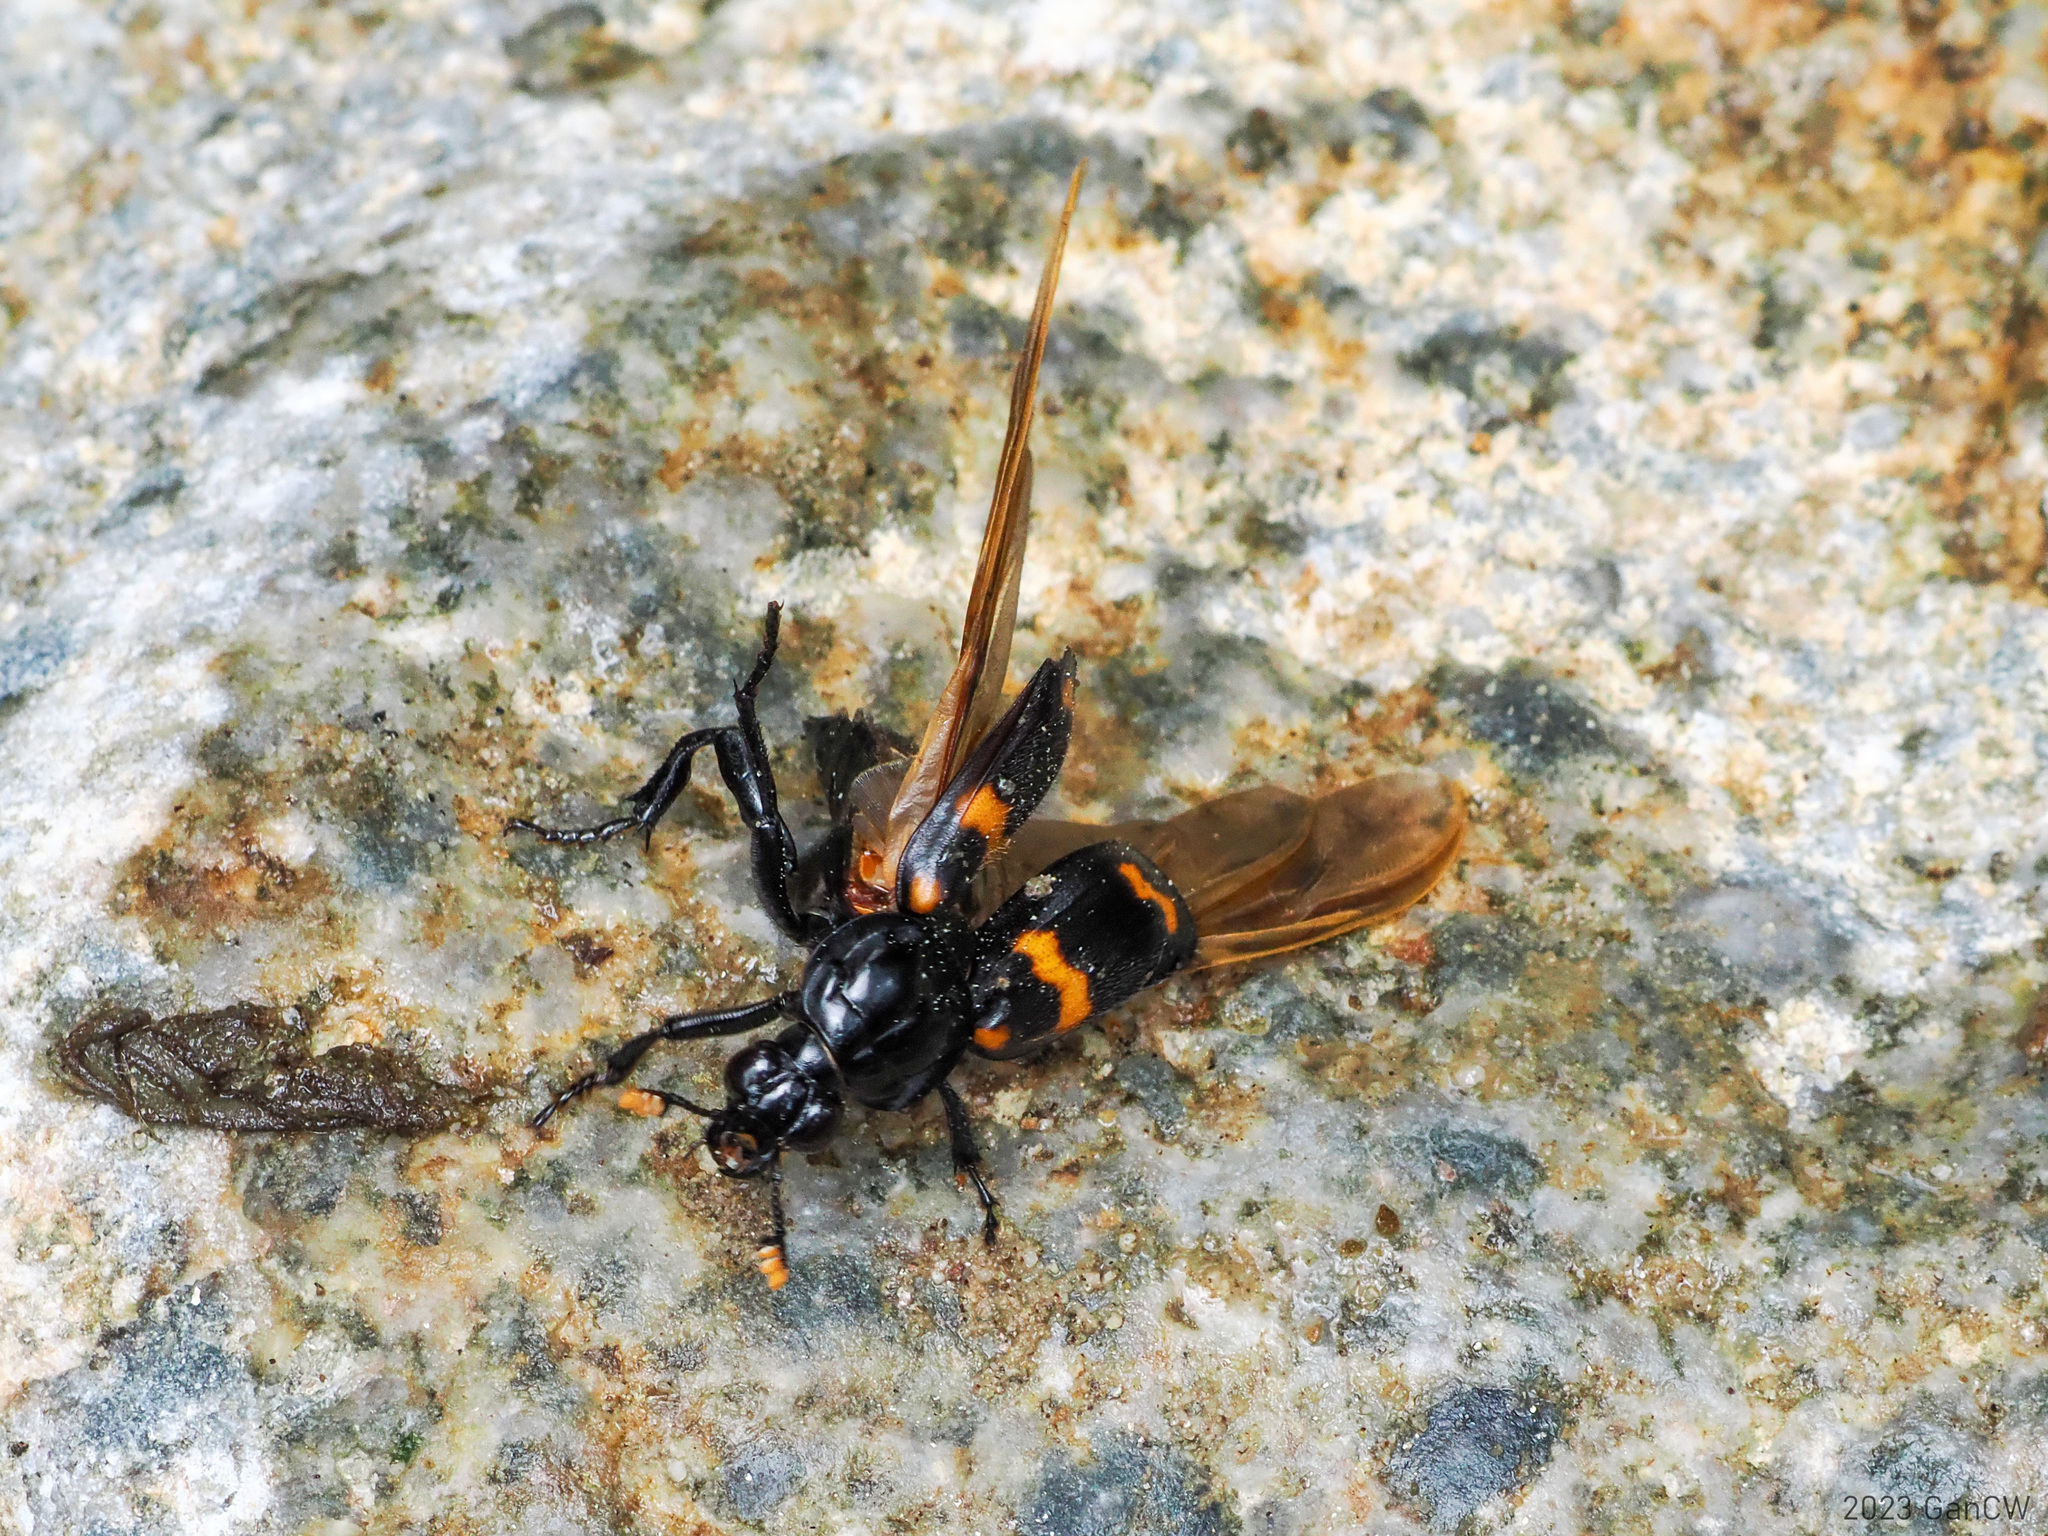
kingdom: Animalia
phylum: Arthropoda
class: Insecta
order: Coleoptera
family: Staphylinidae
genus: Nicrophorus
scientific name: Nicrophorus distinctus
